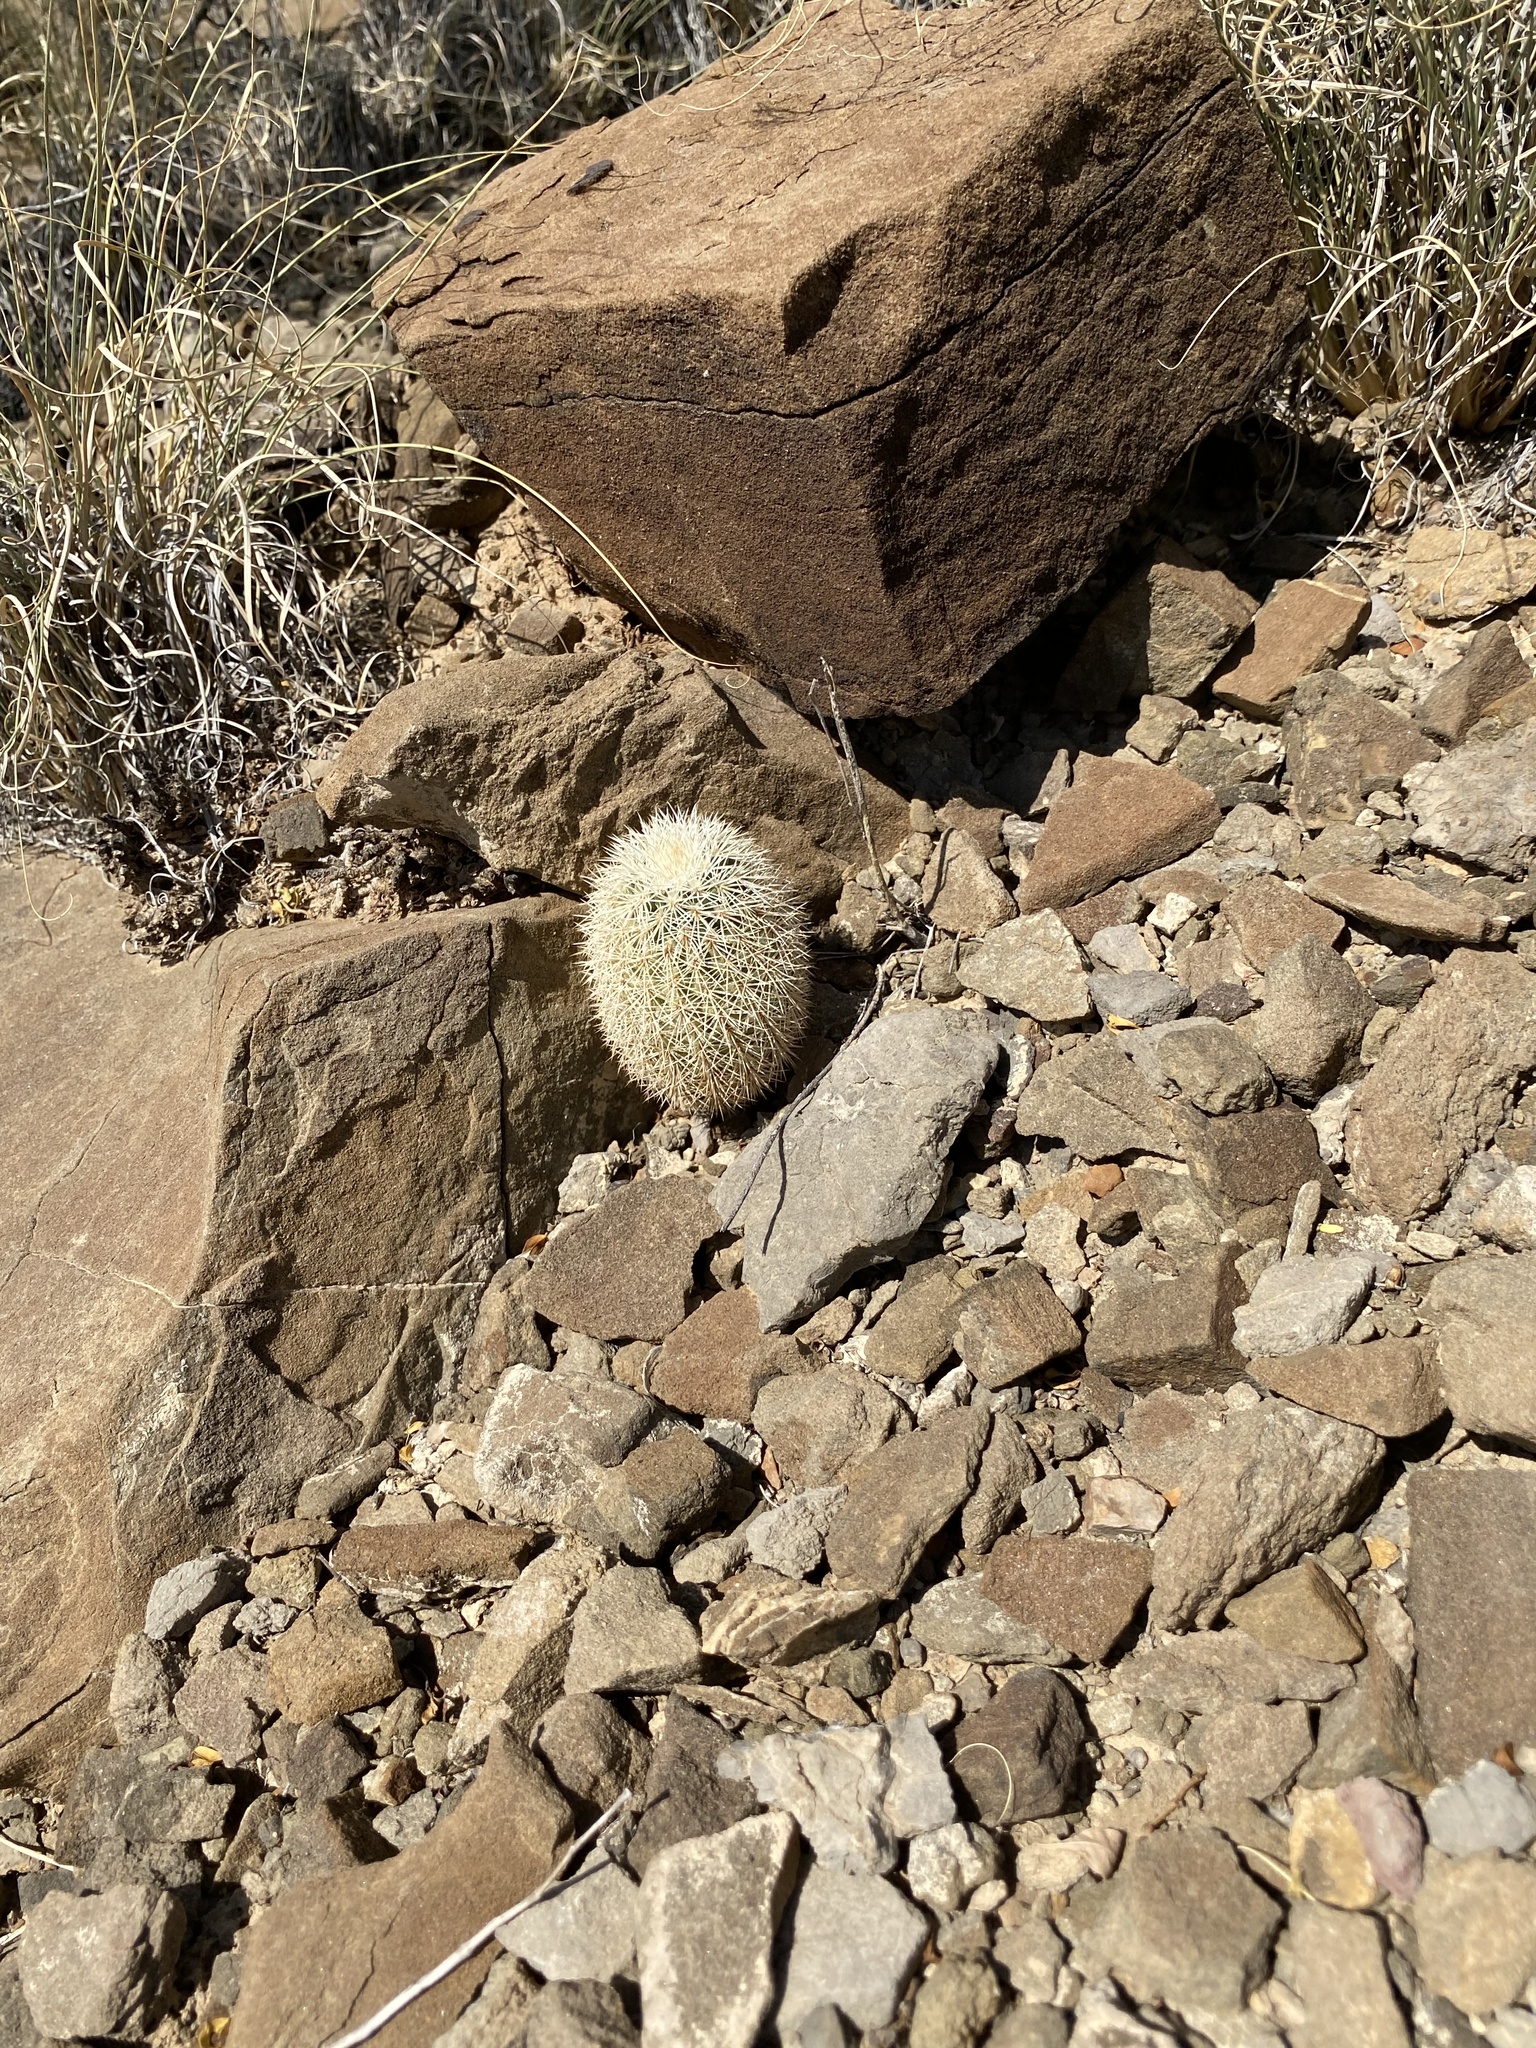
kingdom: Plantae
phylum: Tracheophyta
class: Magnoliopsida
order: Caryophyllales
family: Cactaceae
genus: Echinocereus
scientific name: Echinocereus dasyacanthus
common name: Spiny hedgehog cactus
